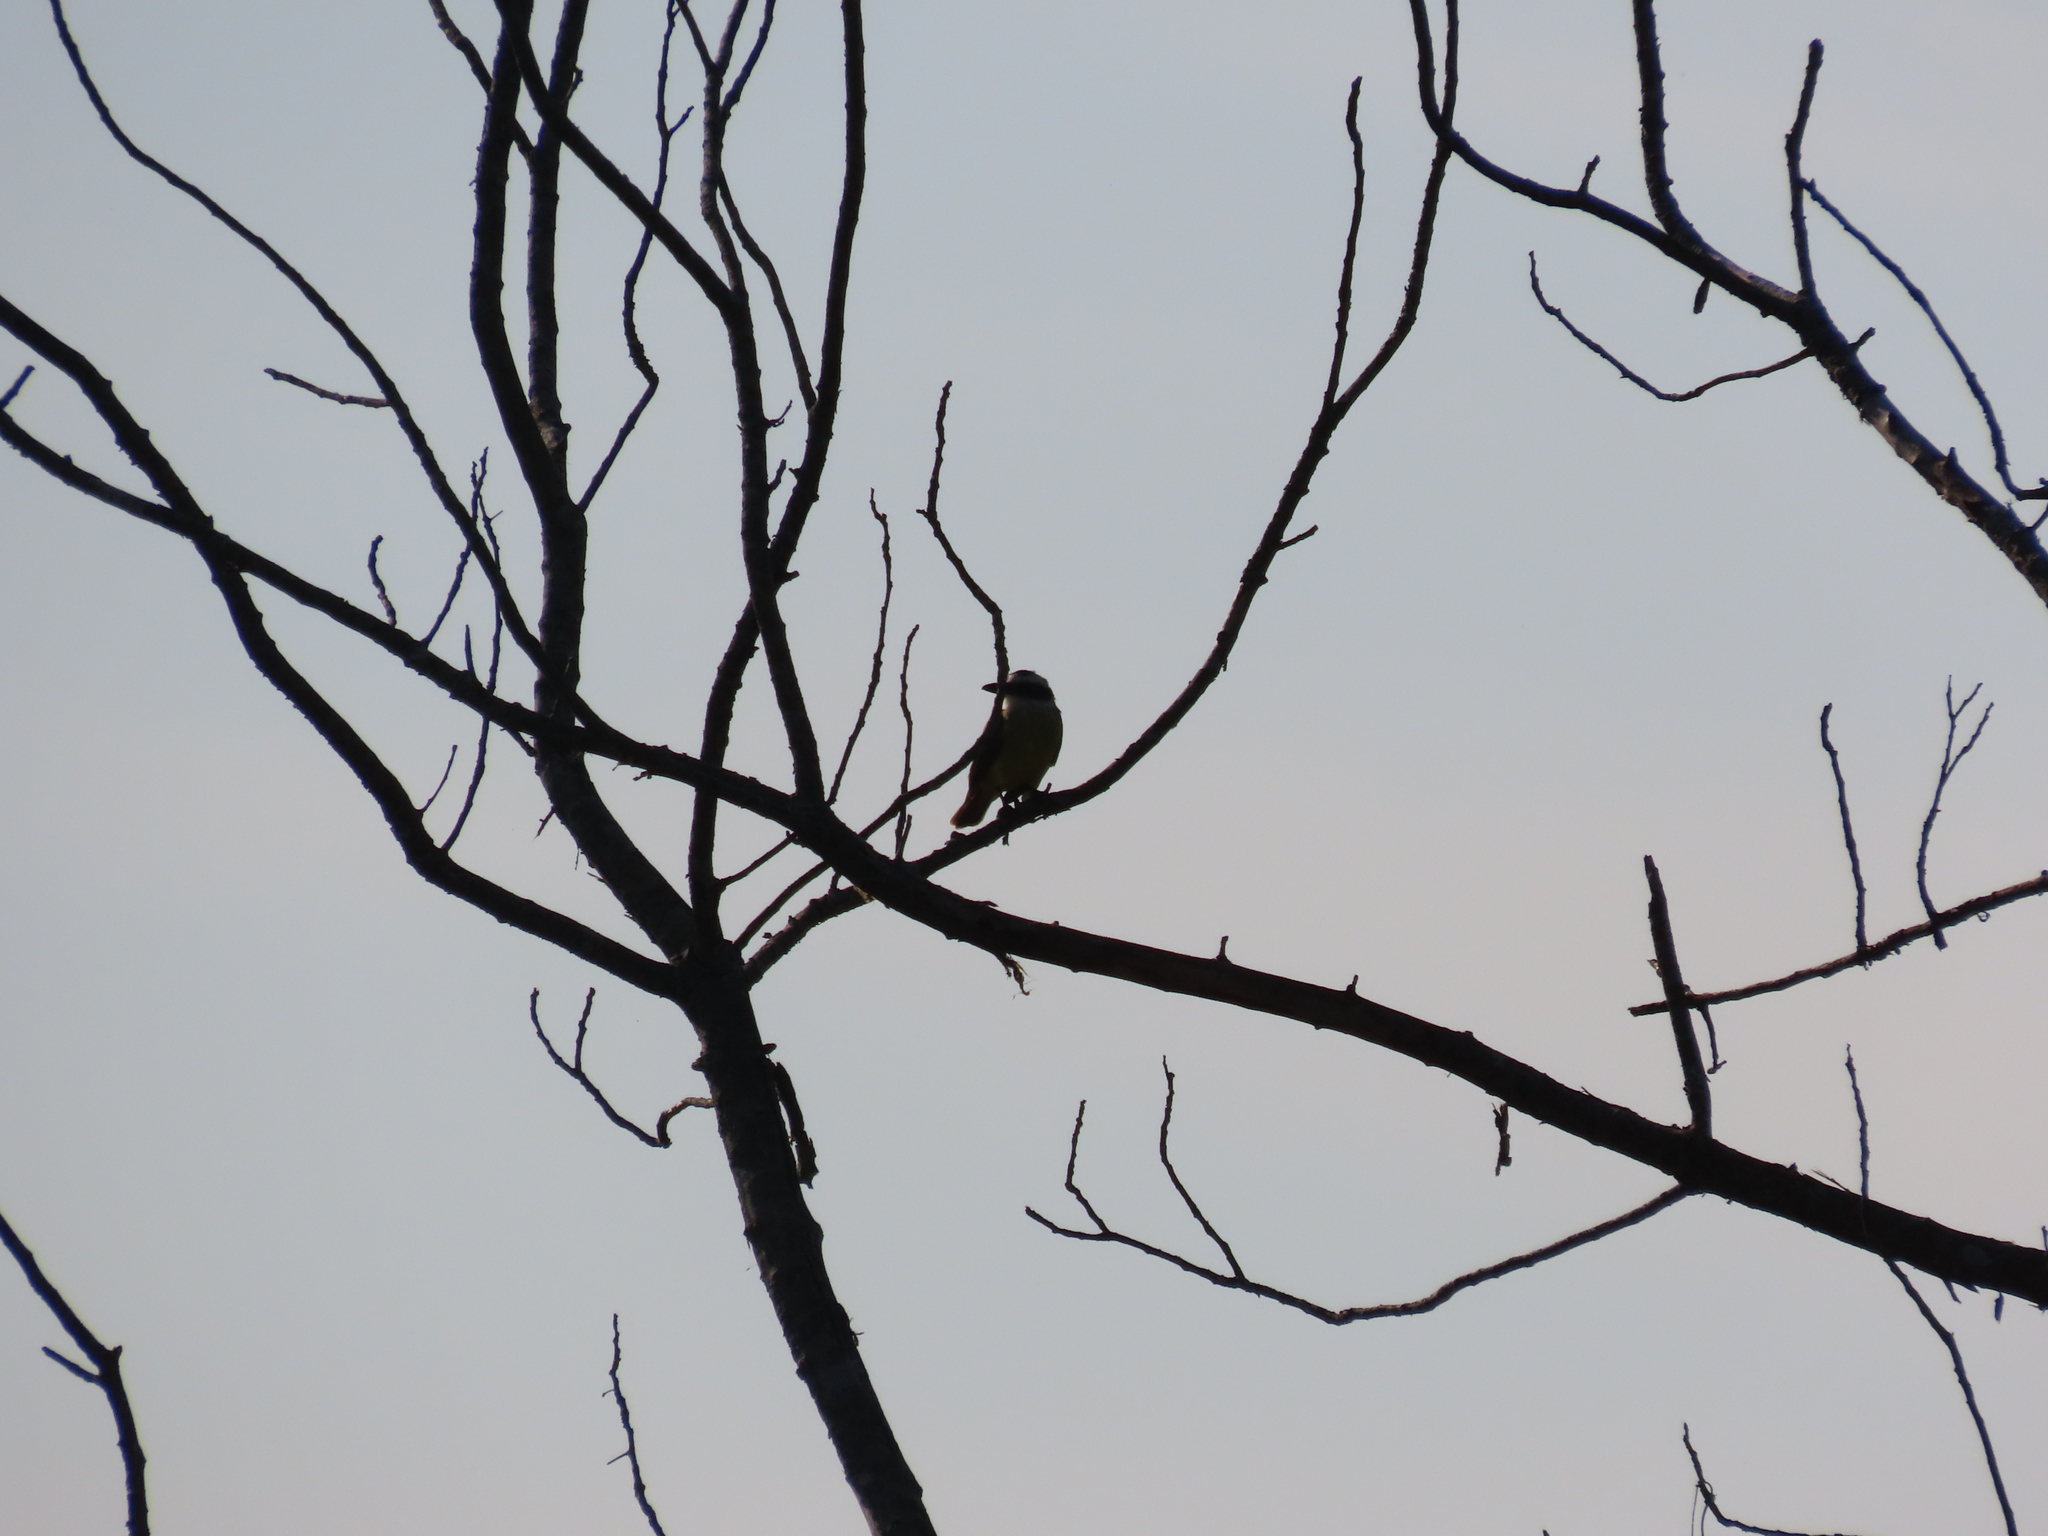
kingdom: Animalia
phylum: Chordata
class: Aves
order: Passeriformes
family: Tyrannidae
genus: Pitangus
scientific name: Pitangus sulphuratus
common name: Great kiskadee
